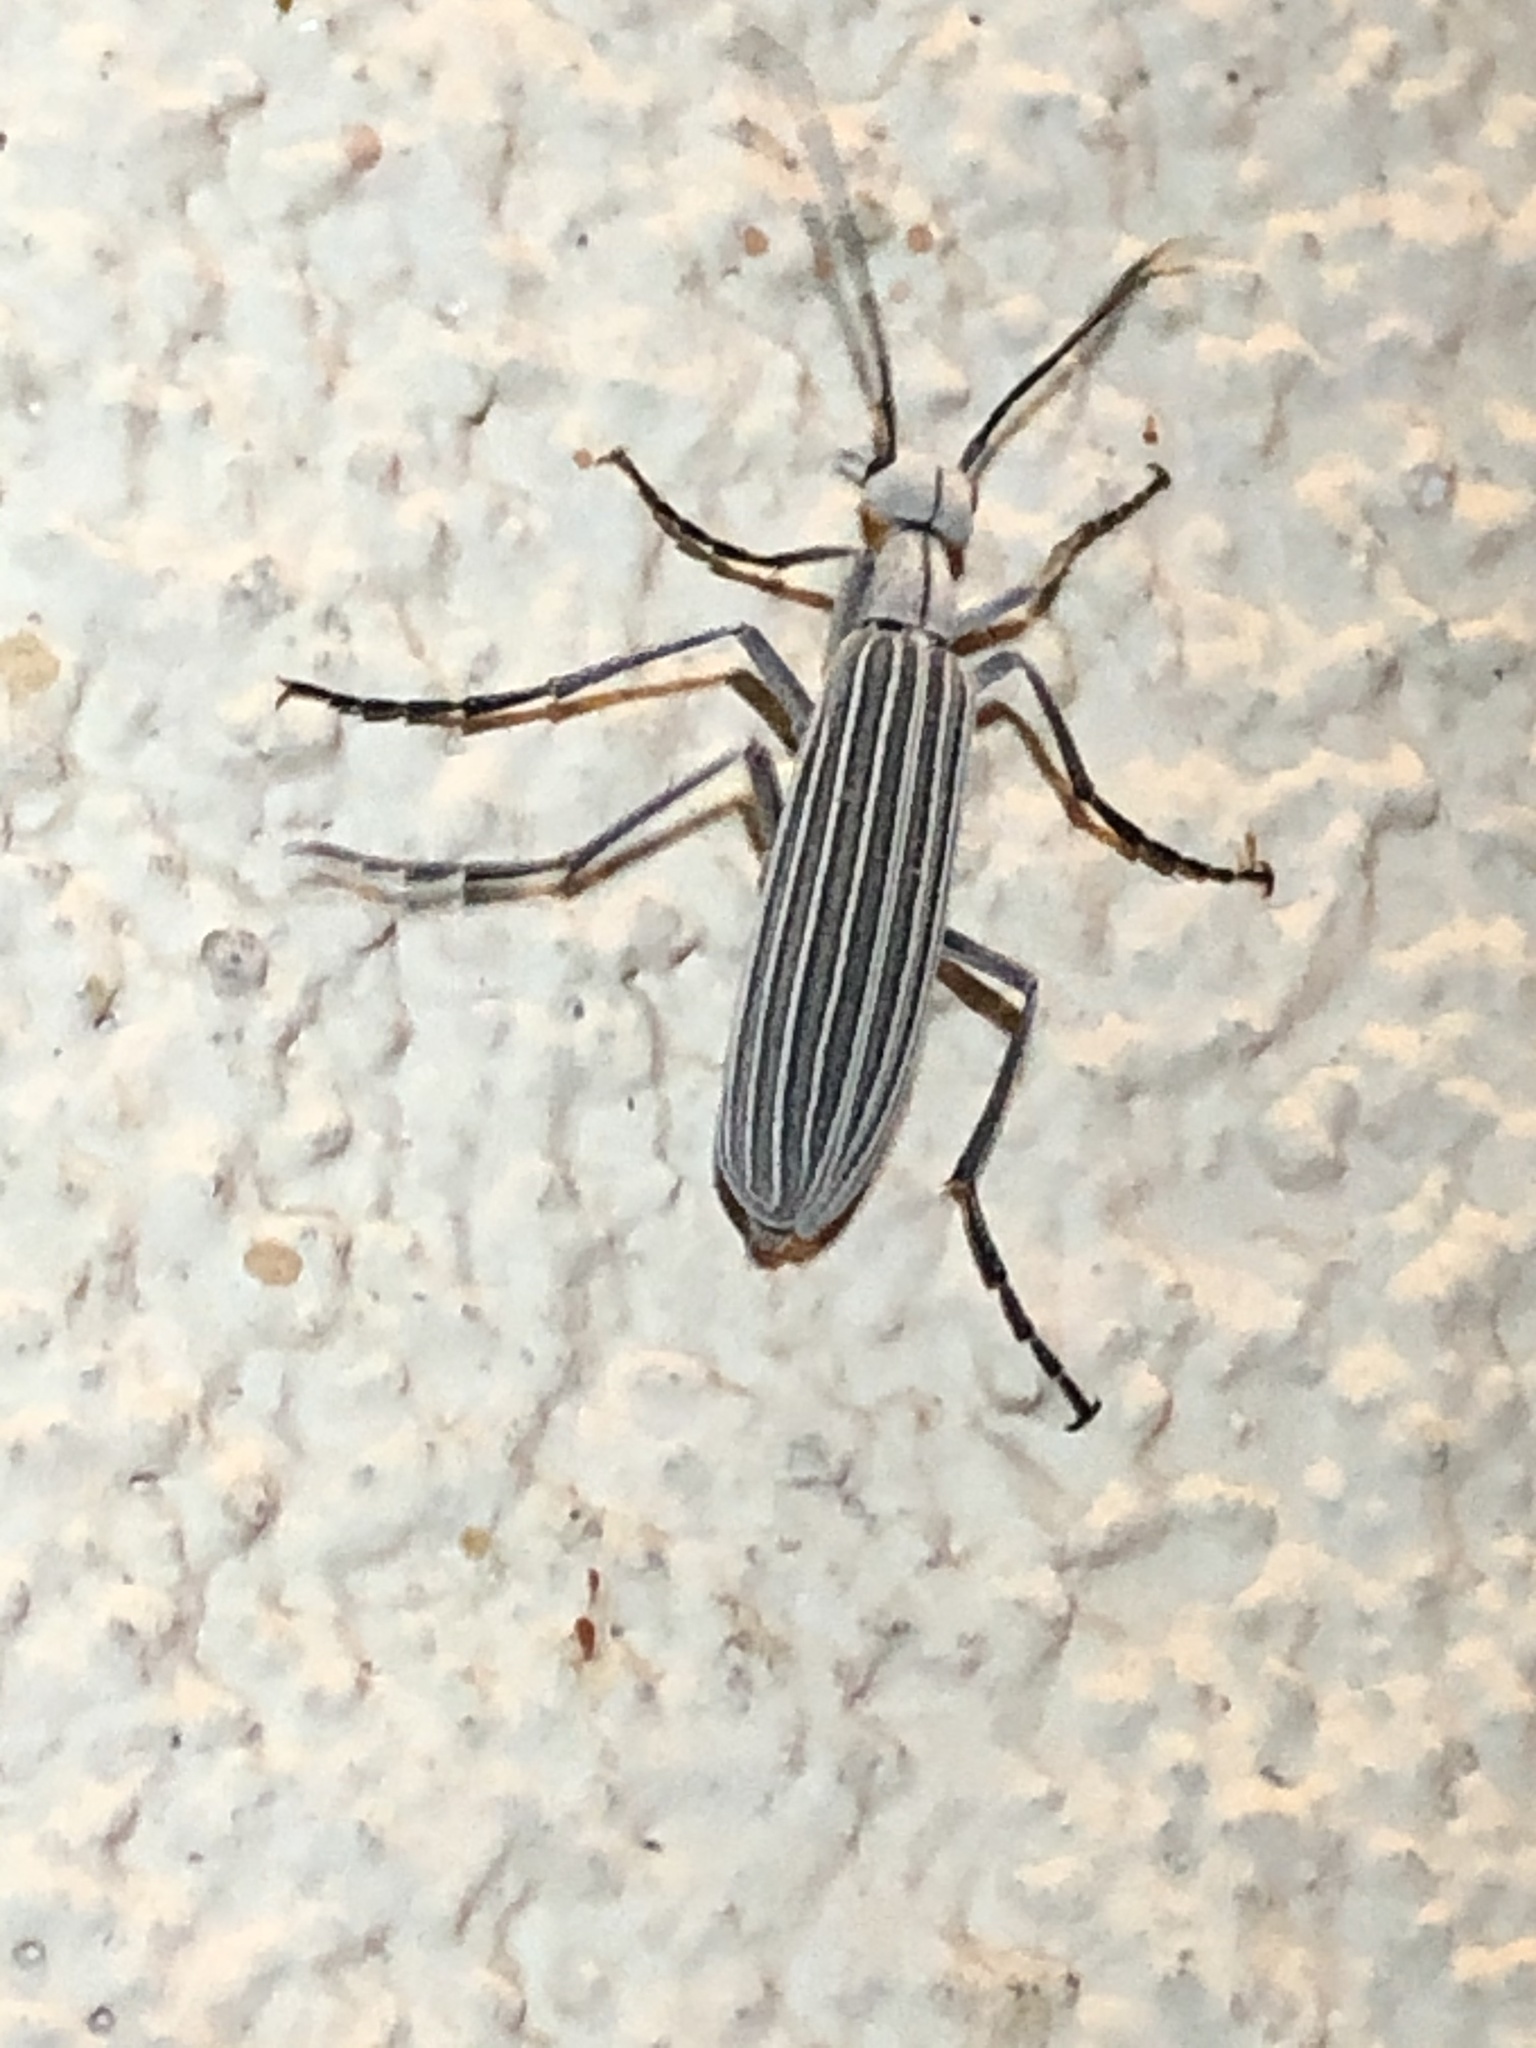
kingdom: Animalia
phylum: Arthropoda
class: Insecta
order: Coleoptera
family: Meloidae
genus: Epicauta
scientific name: Epicauta costata
